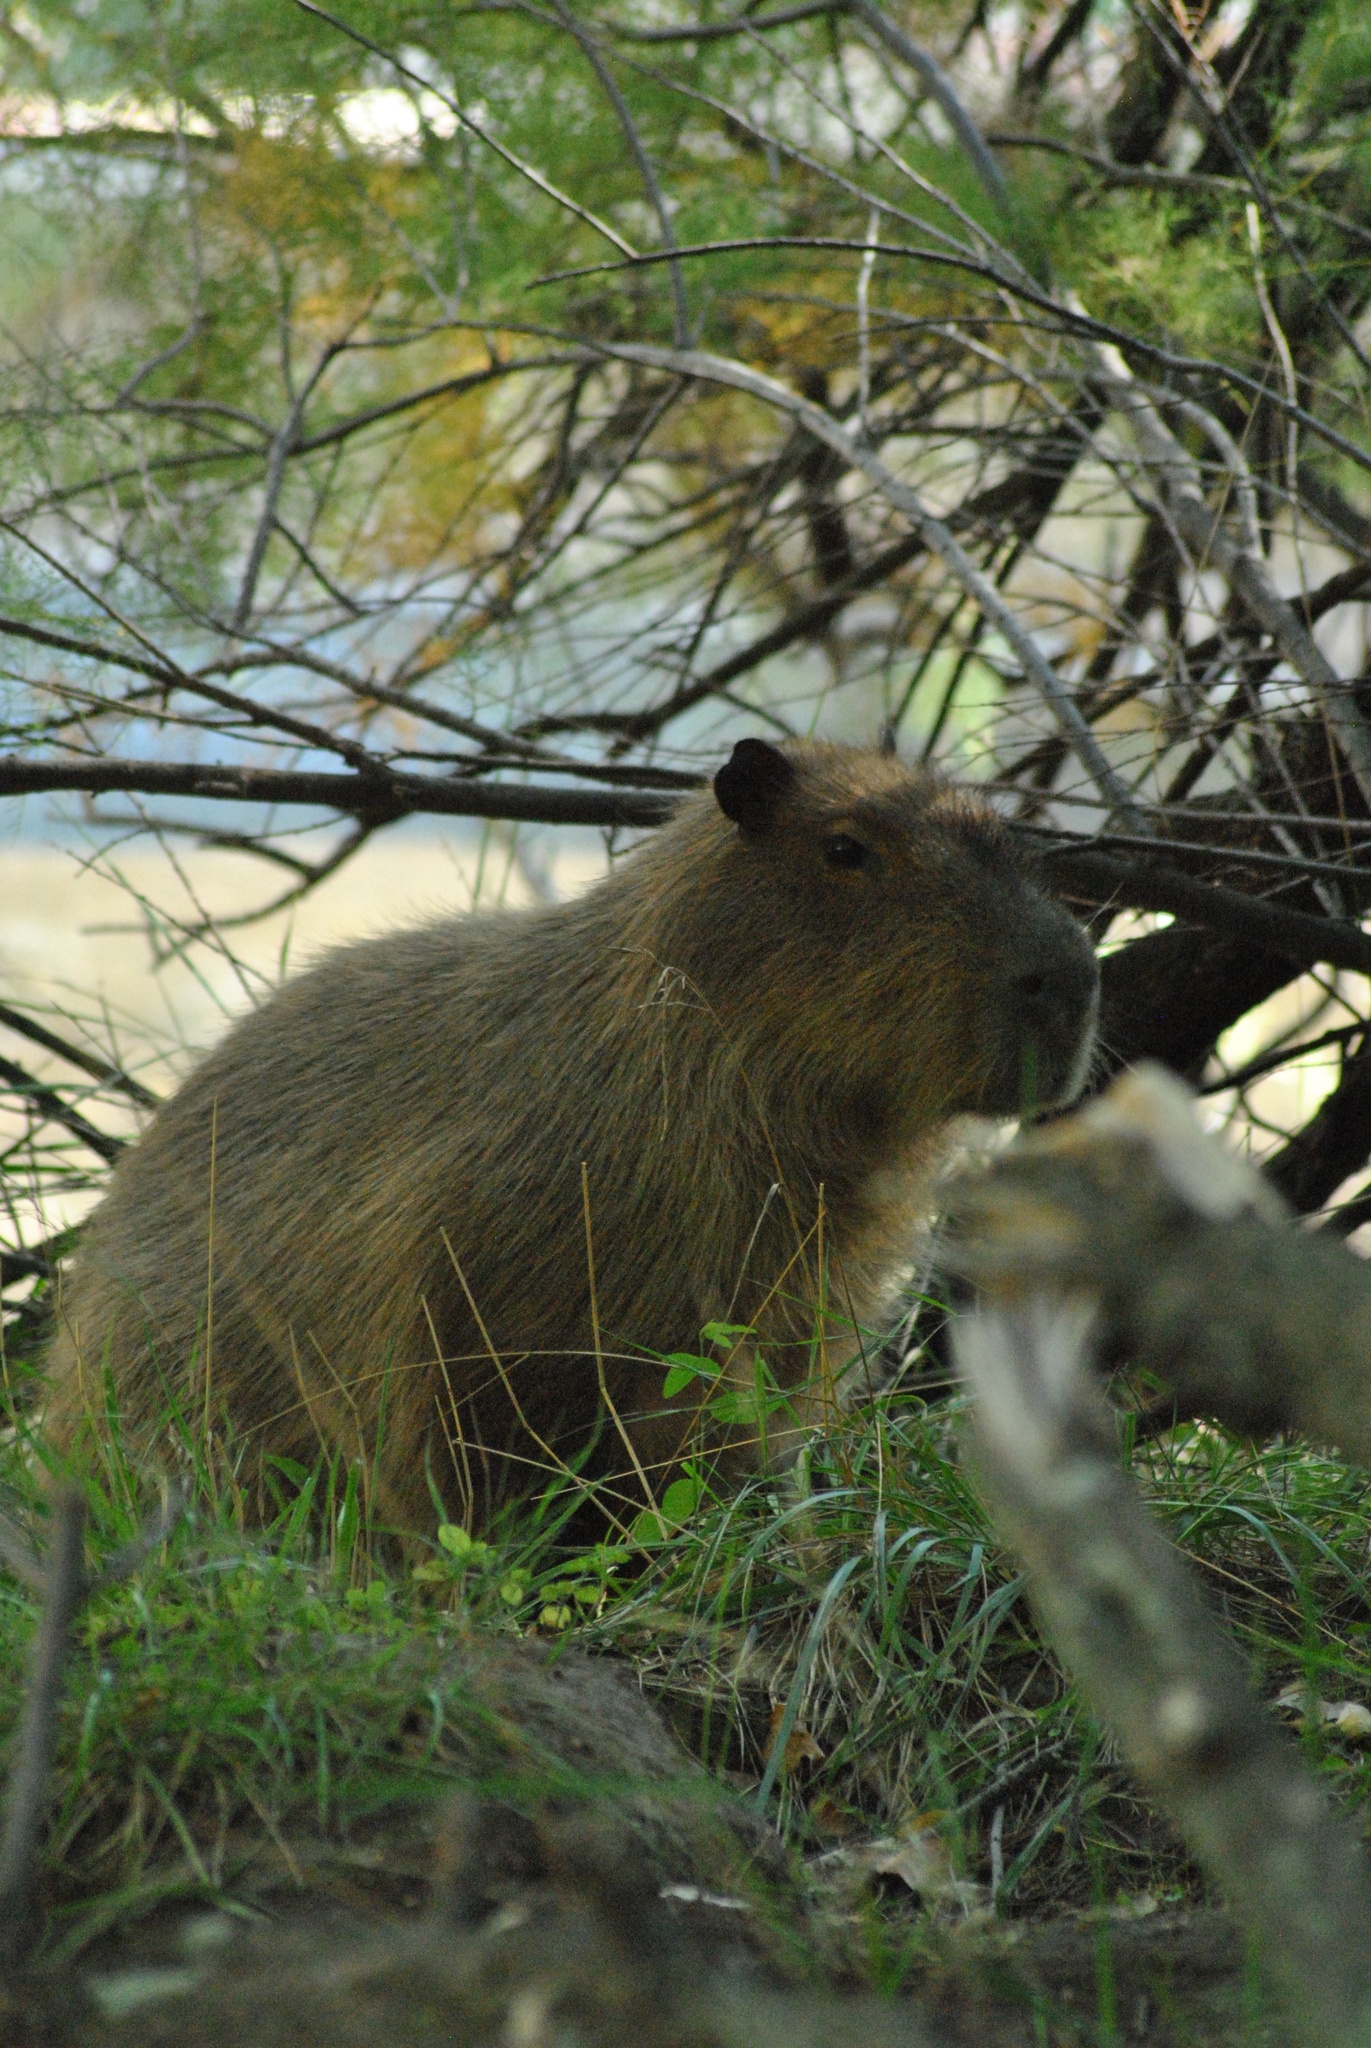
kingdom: Animalia
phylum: Chordata
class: Mammalia
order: Rodentia
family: Caviidae
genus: Hydrochoerus
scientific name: Hydrochoerus hydrochaeris
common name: Capybara
